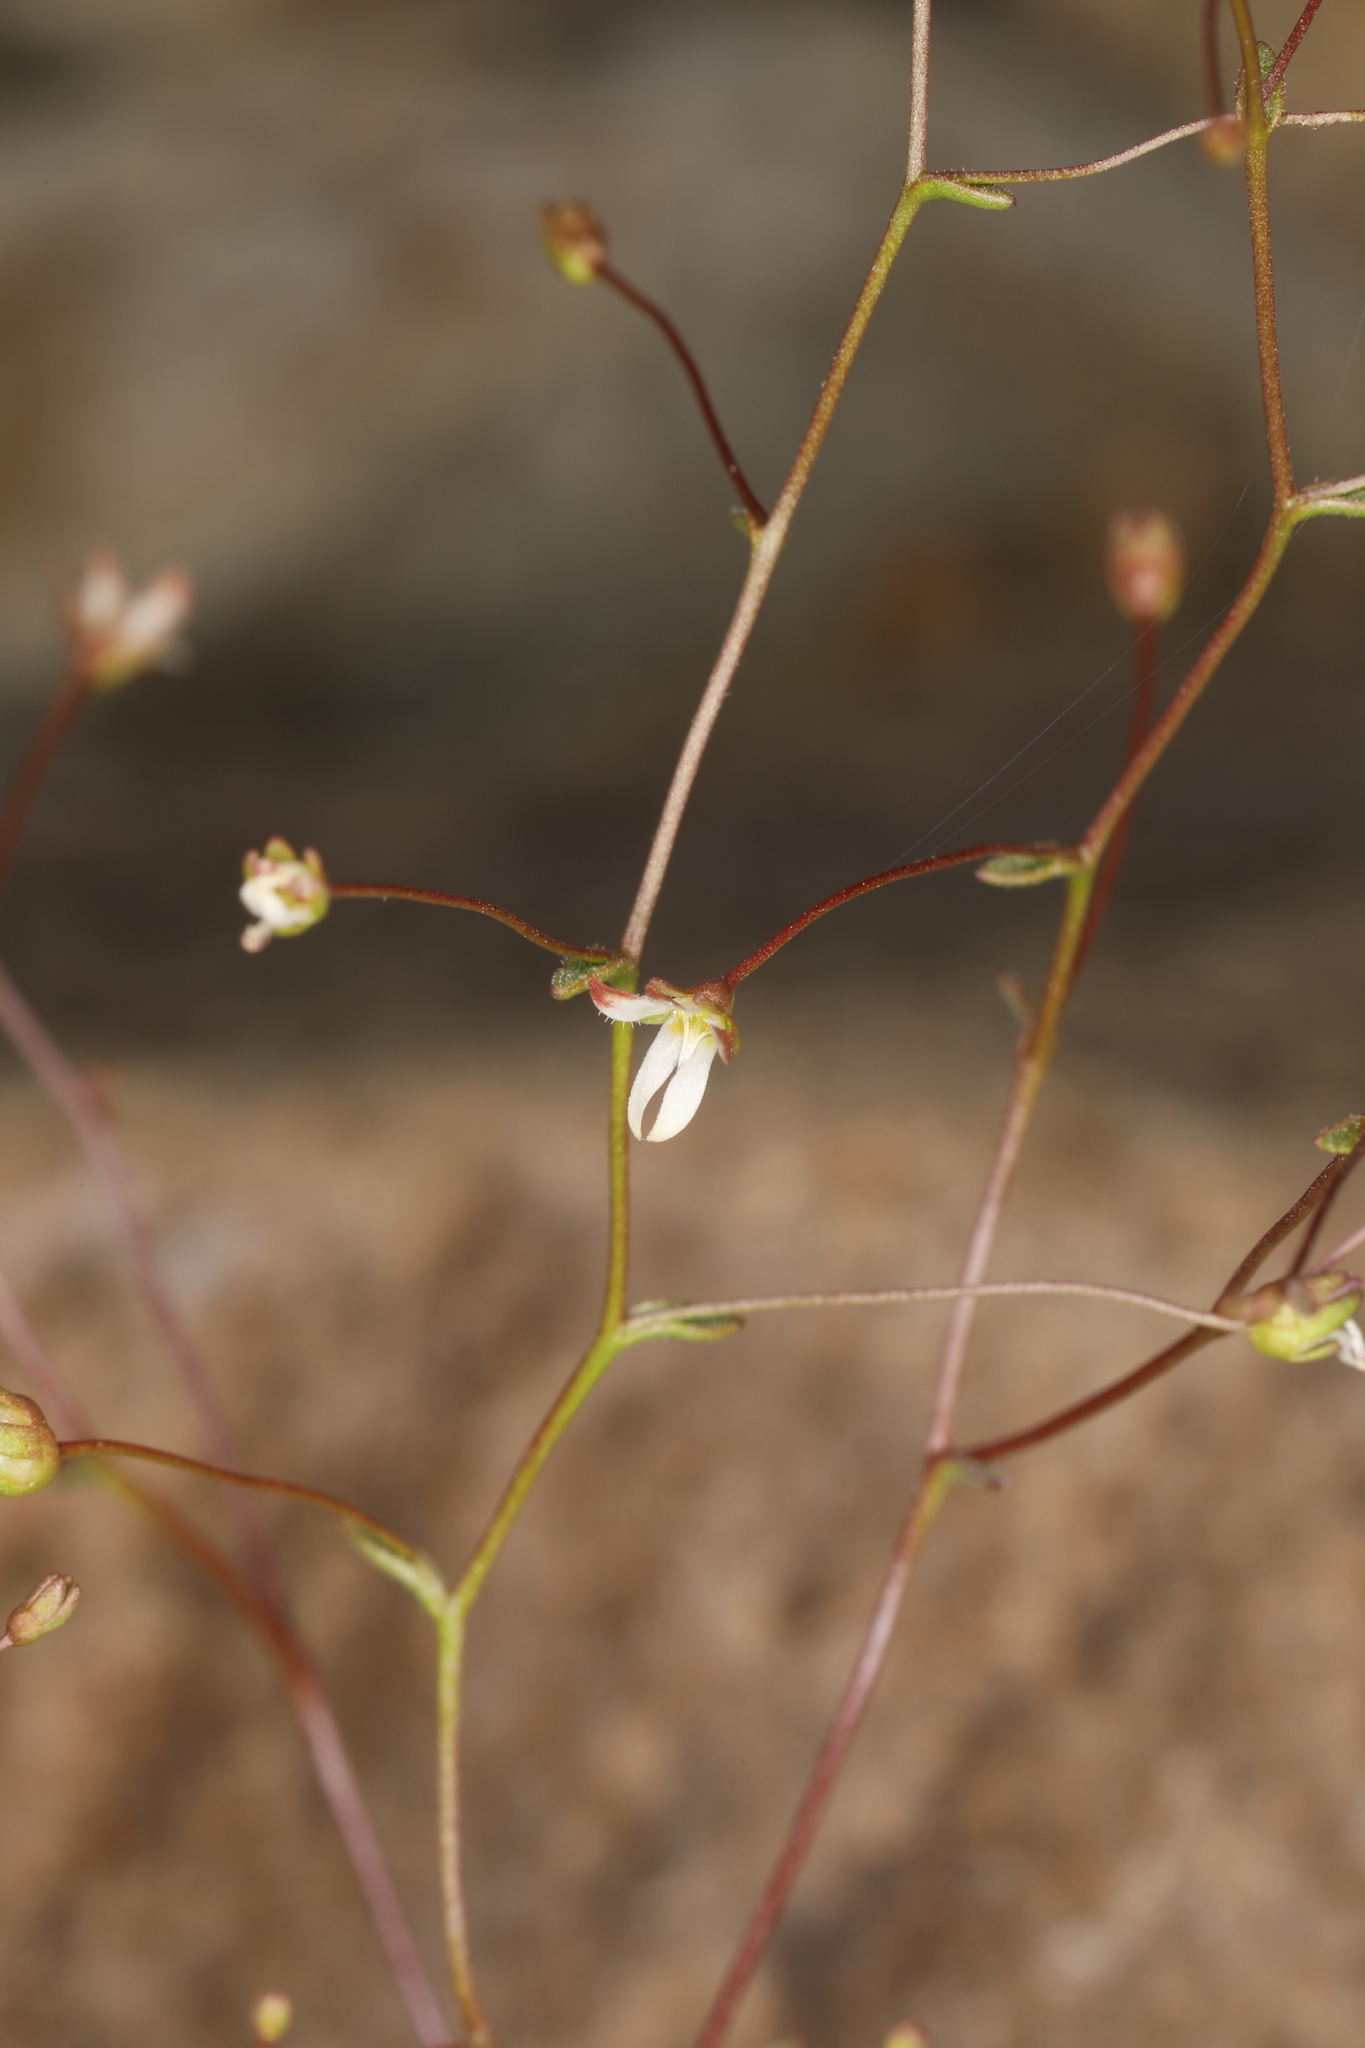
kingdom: Plantae
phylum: Tracheophyta
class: Magnoliopsida
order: Asterales
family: Campanulaceae
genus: Nemacladus
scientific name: Nemacladus morefieldii
